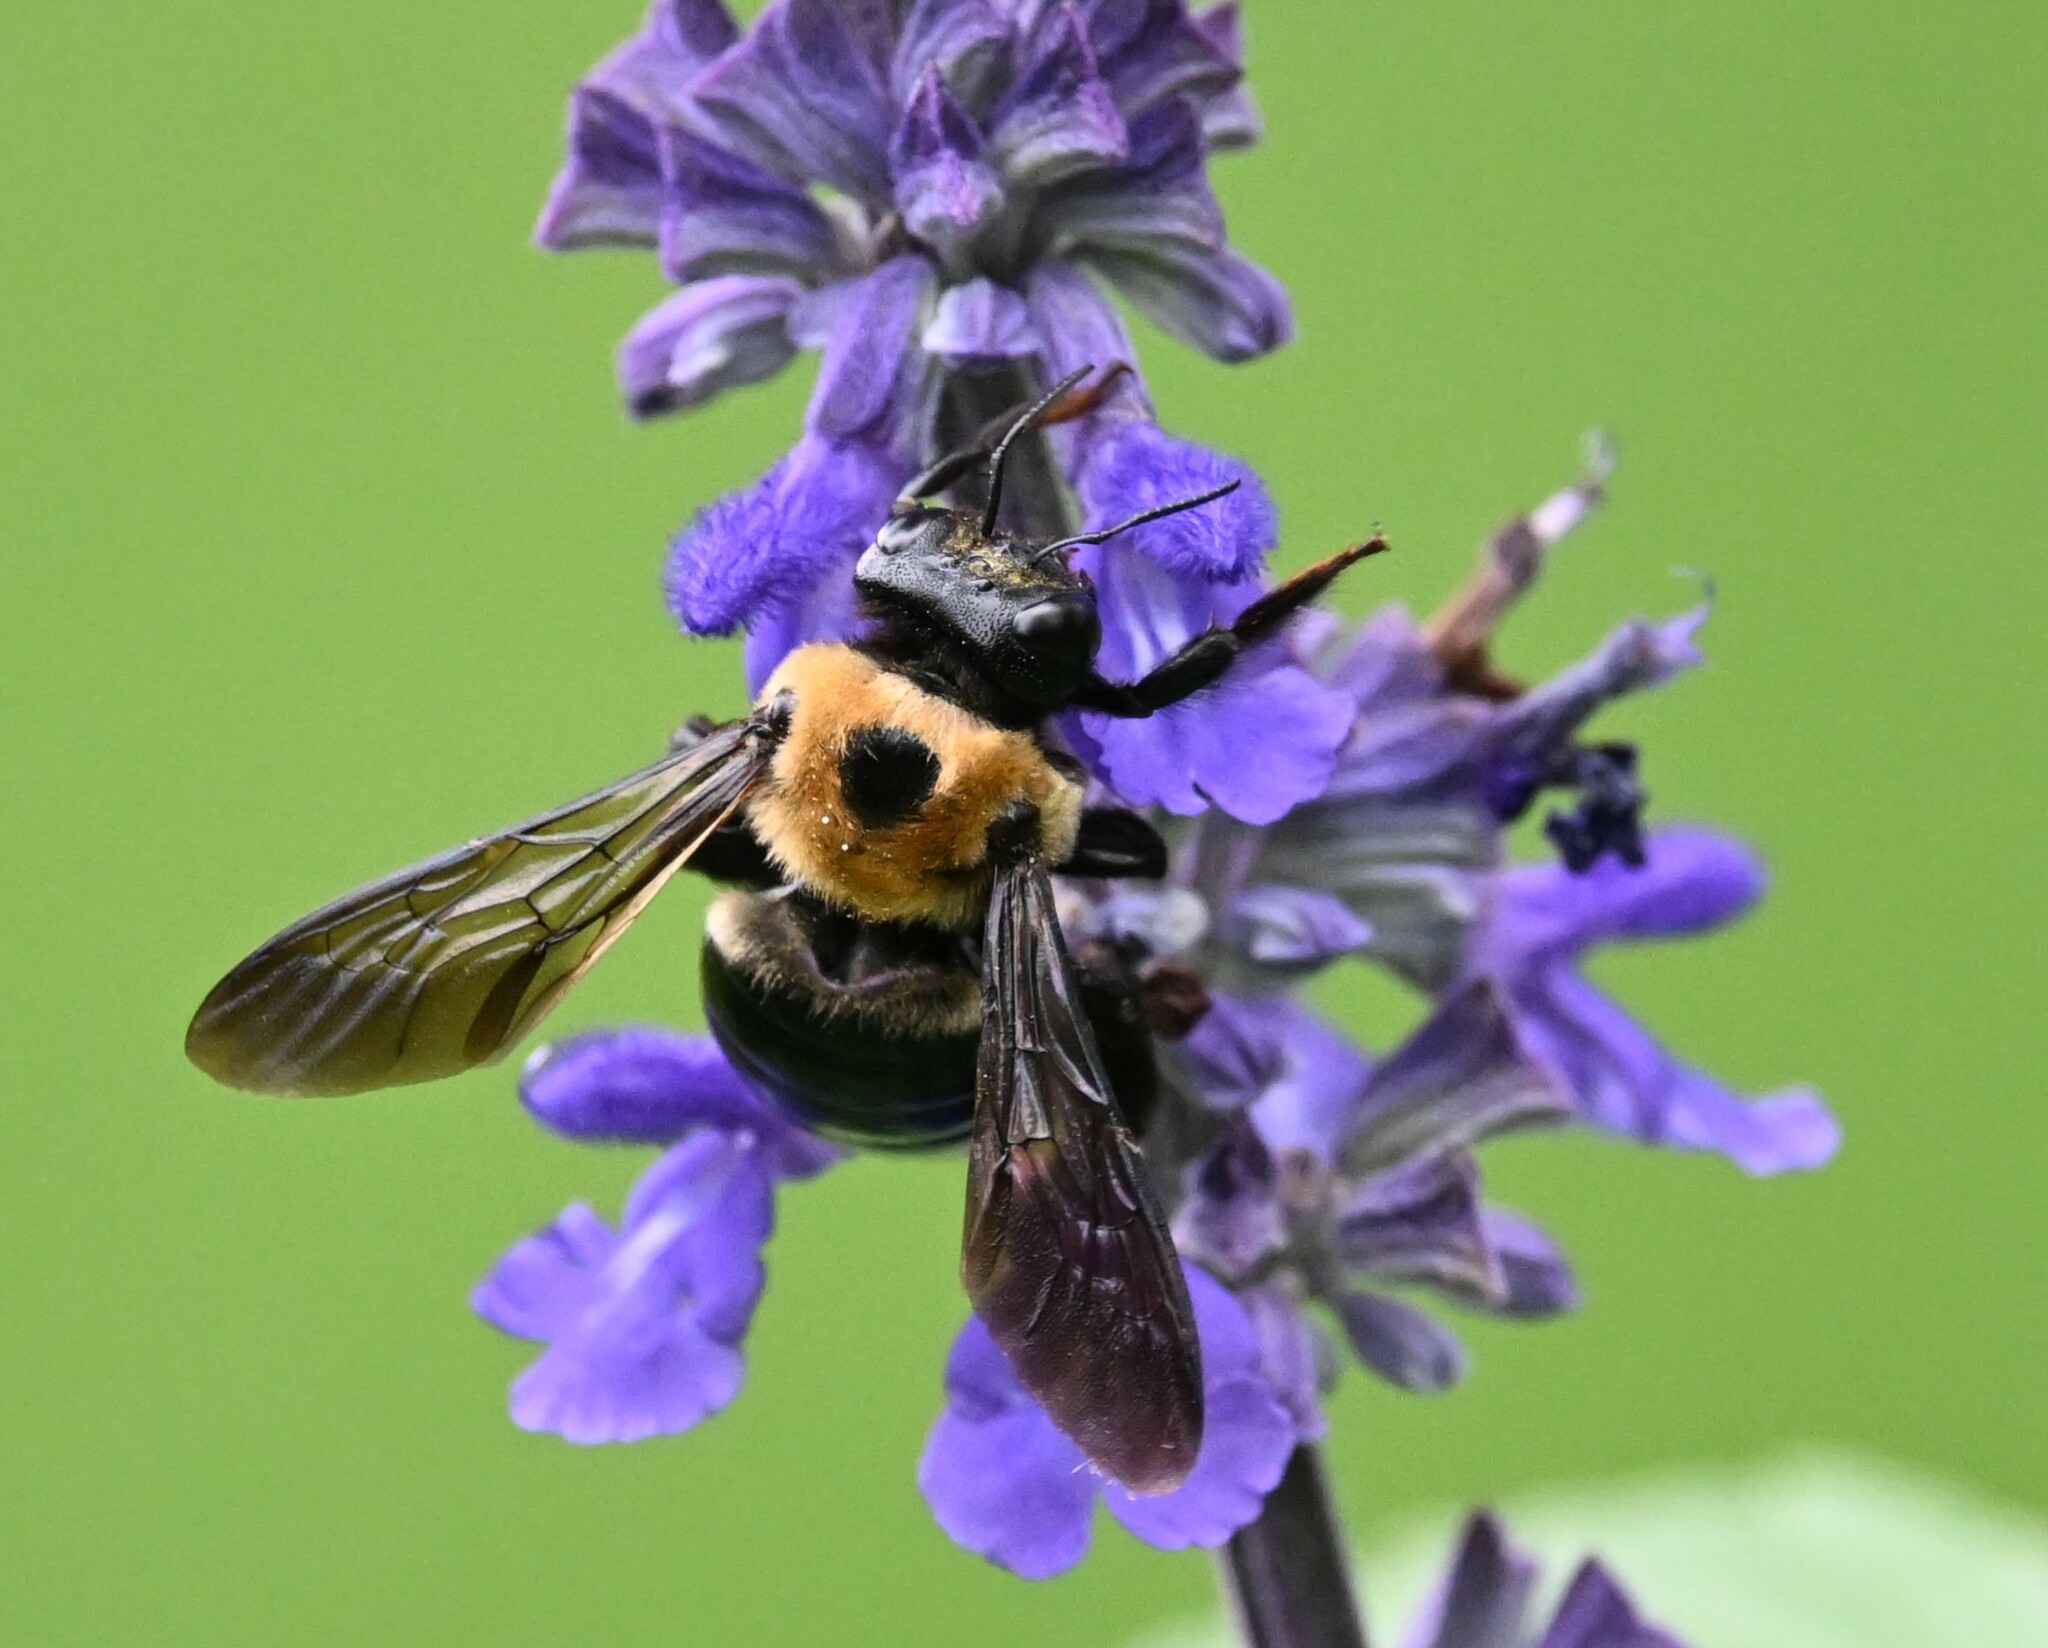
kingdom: Animalia
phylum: Arthropoda
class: Insecta
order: Hymenoptera
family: Apidae
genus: Xylocopa
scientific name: Xylocopa virginica
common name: Carpenter bee
